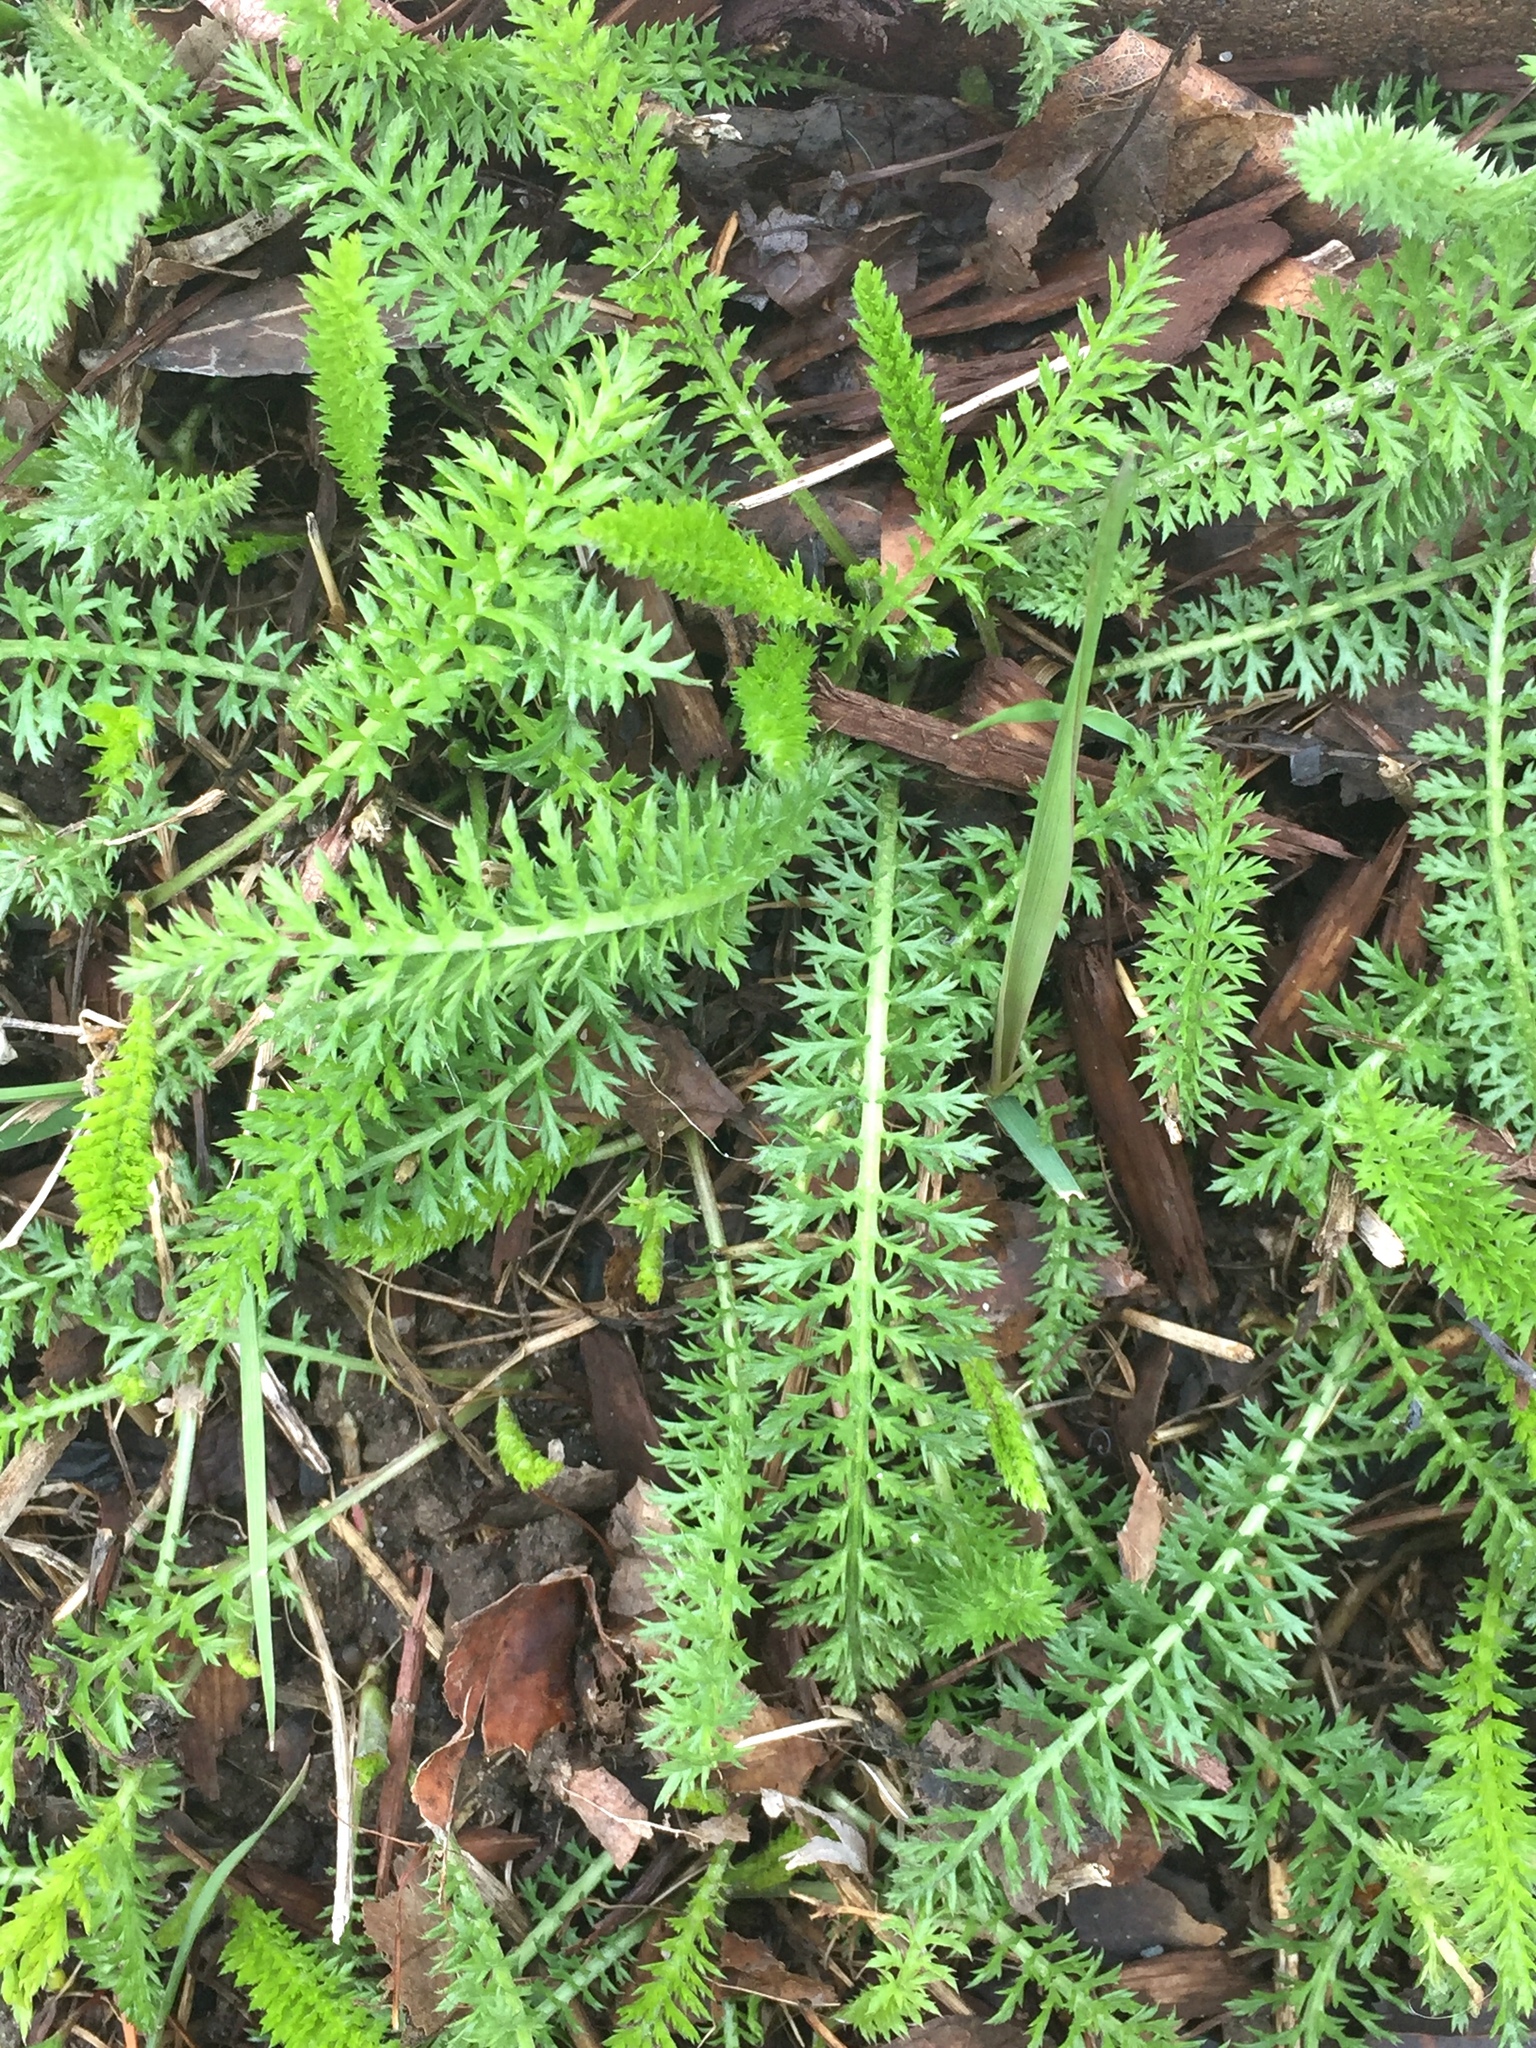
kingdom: Plantae
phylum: Tracheophyta
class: Magnoliopsida
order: Asterales
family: Asteraceae
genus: Achillea
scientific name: Achillea millefolium
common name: Yarrow
